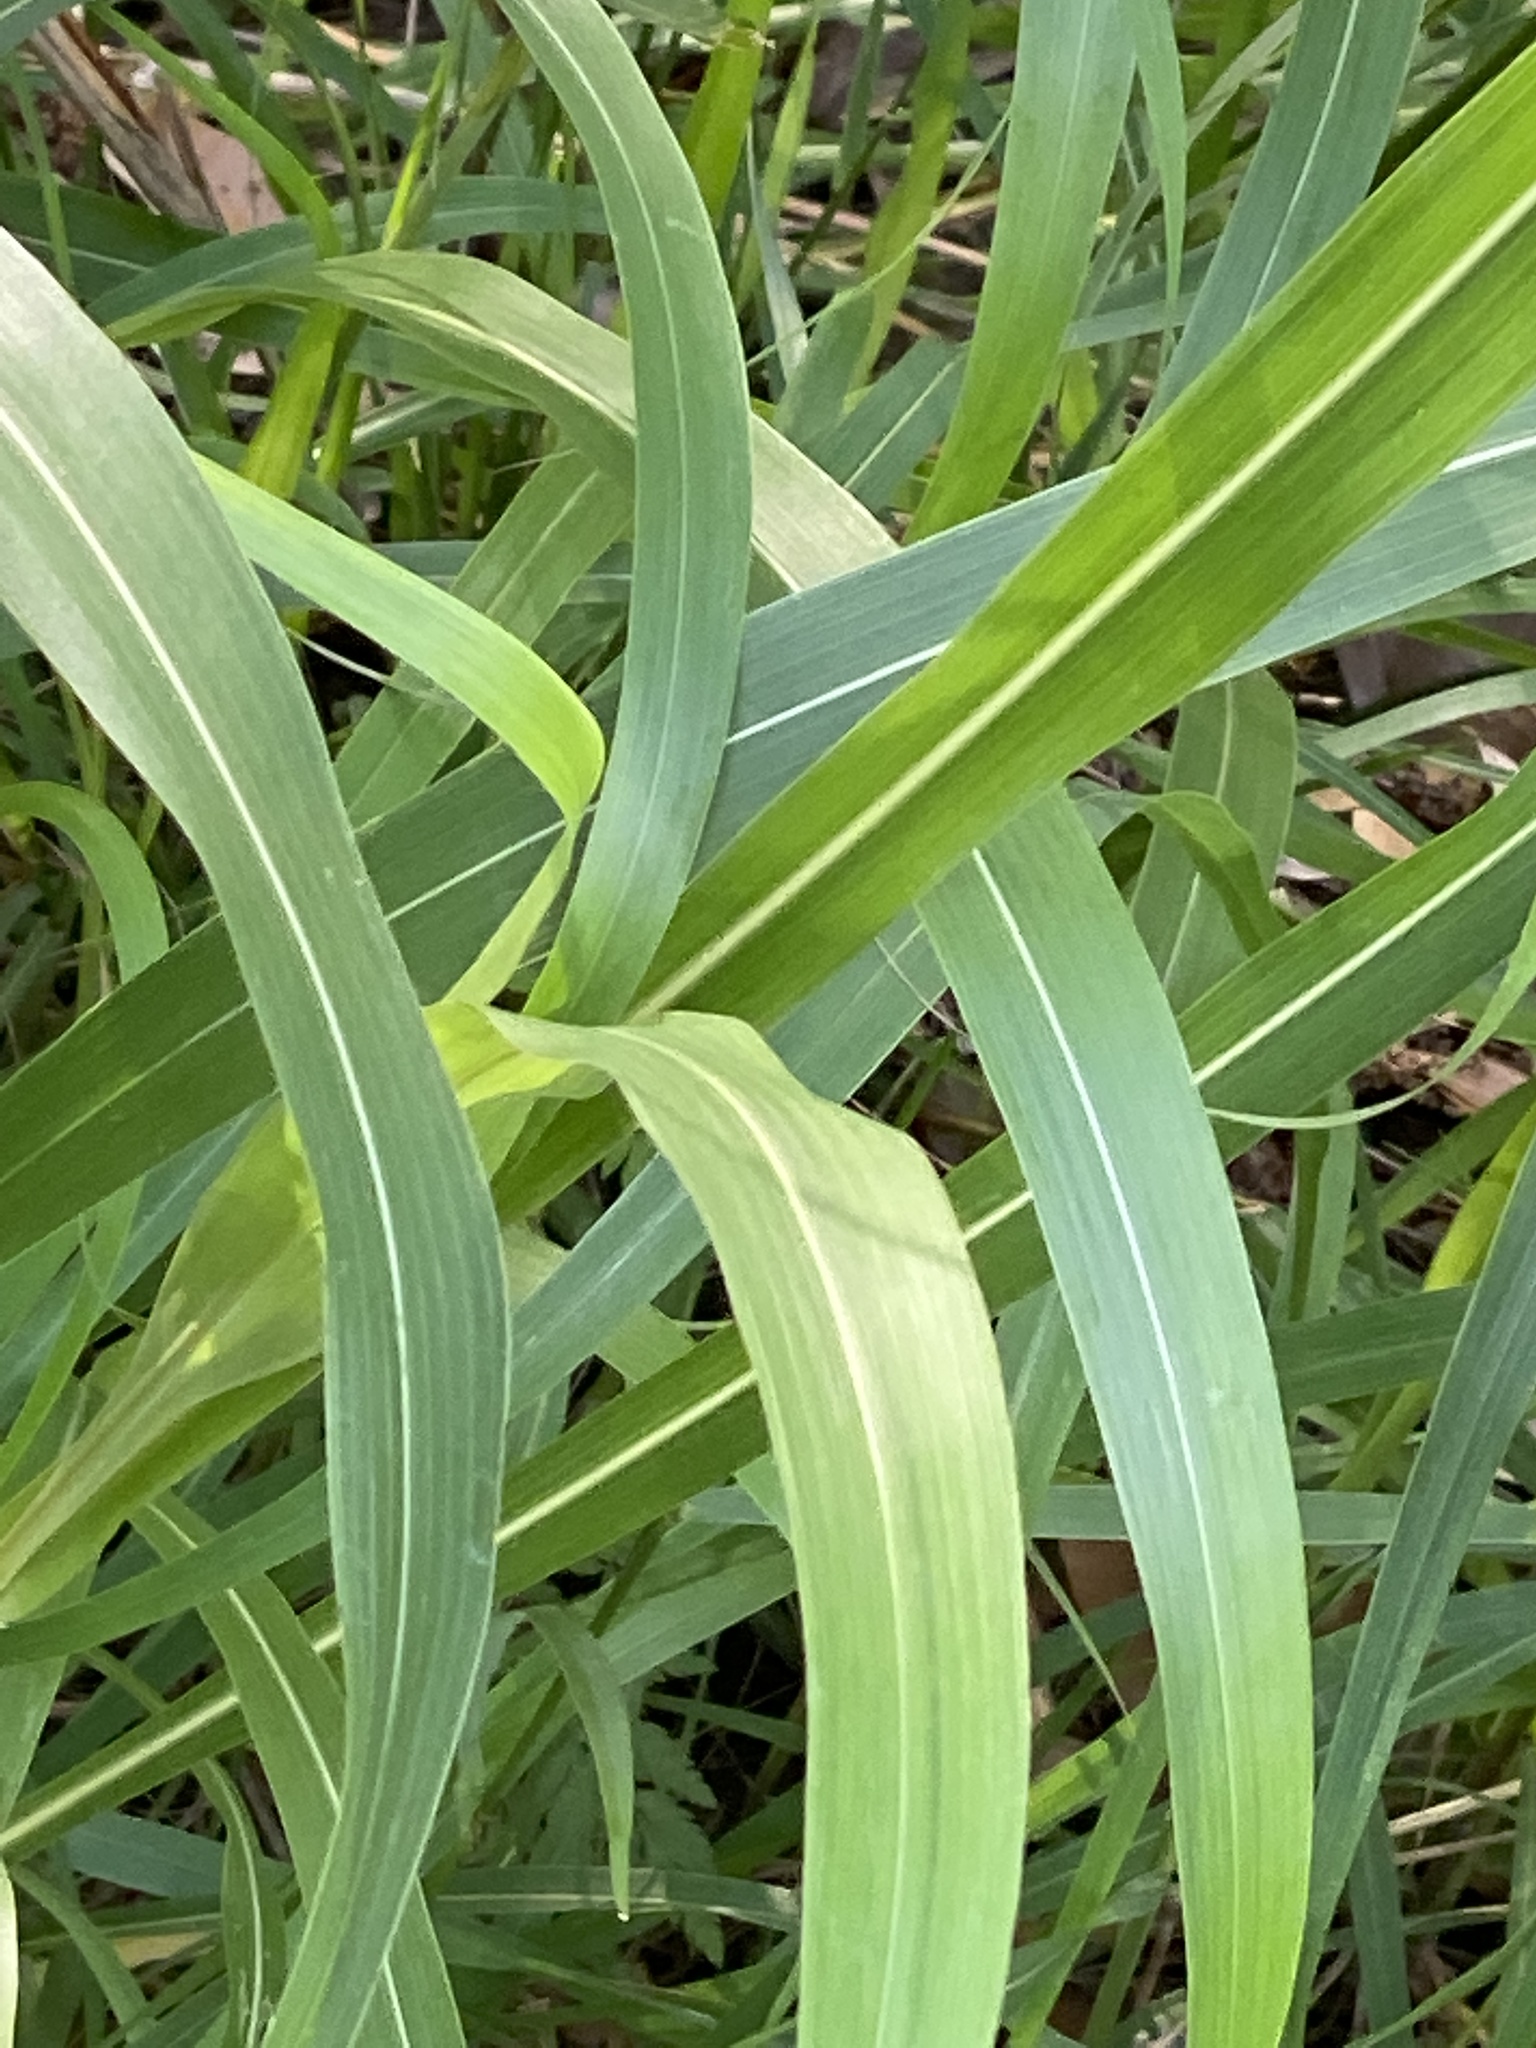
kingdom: Plantae
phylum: Tracheophyta
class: Liliopsida
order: Poales
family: Poaceae
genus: Sorghum
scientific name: Sorghum halepense
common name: Johnson-grass
